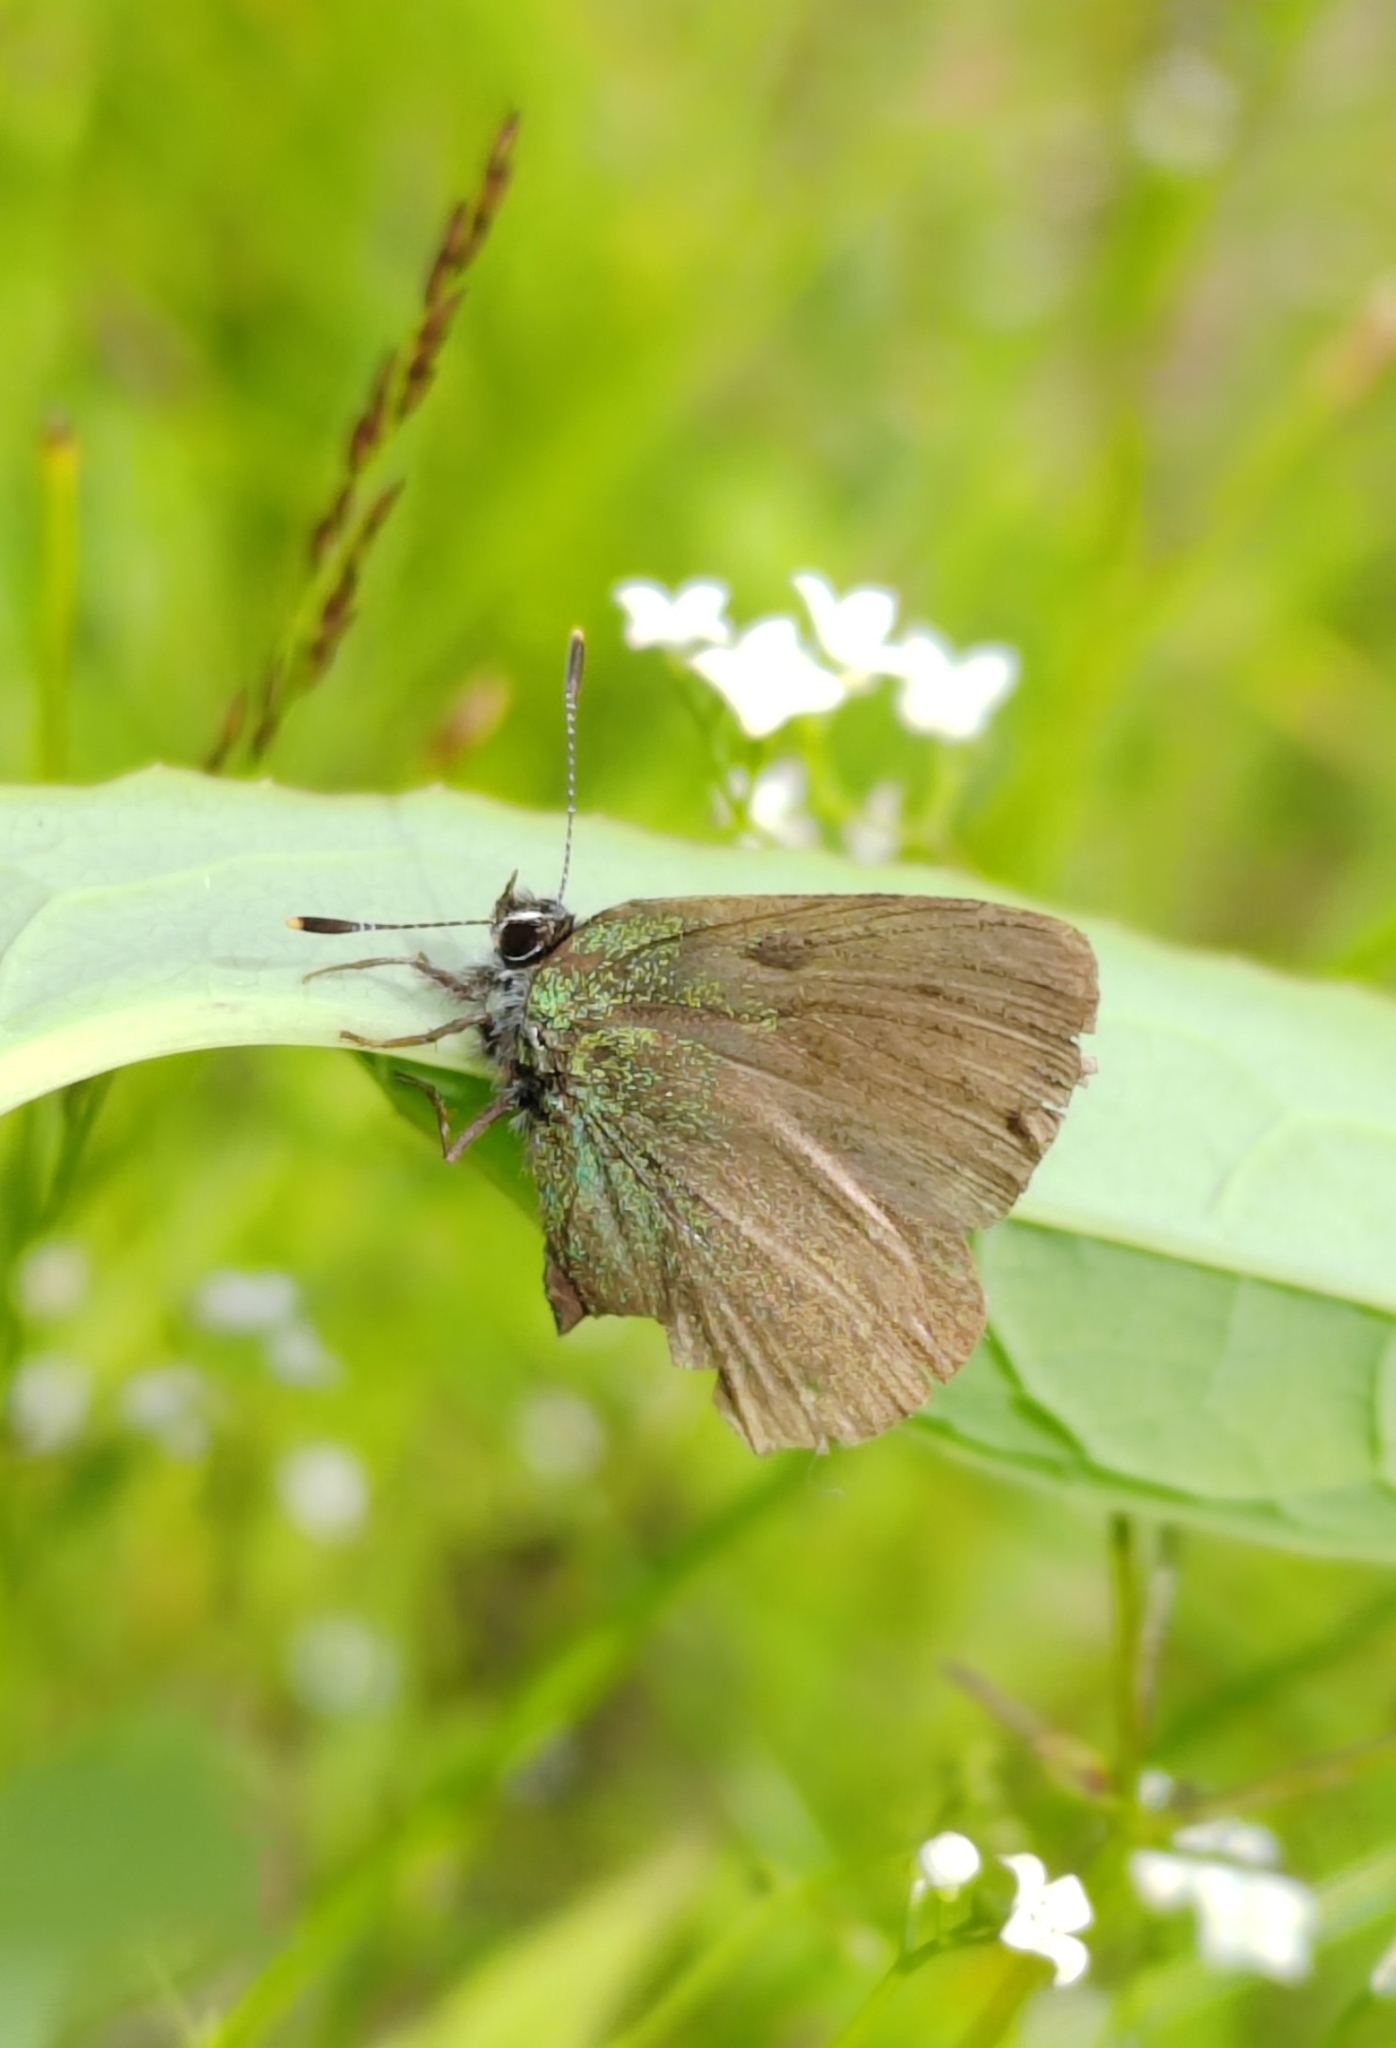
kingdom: Animalia
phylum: Arthropoda
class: Insecta
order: Lepidoptera
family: Lycaenidae
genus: Callophrys
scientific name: Callophrys rubi
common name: Green hairstreak
